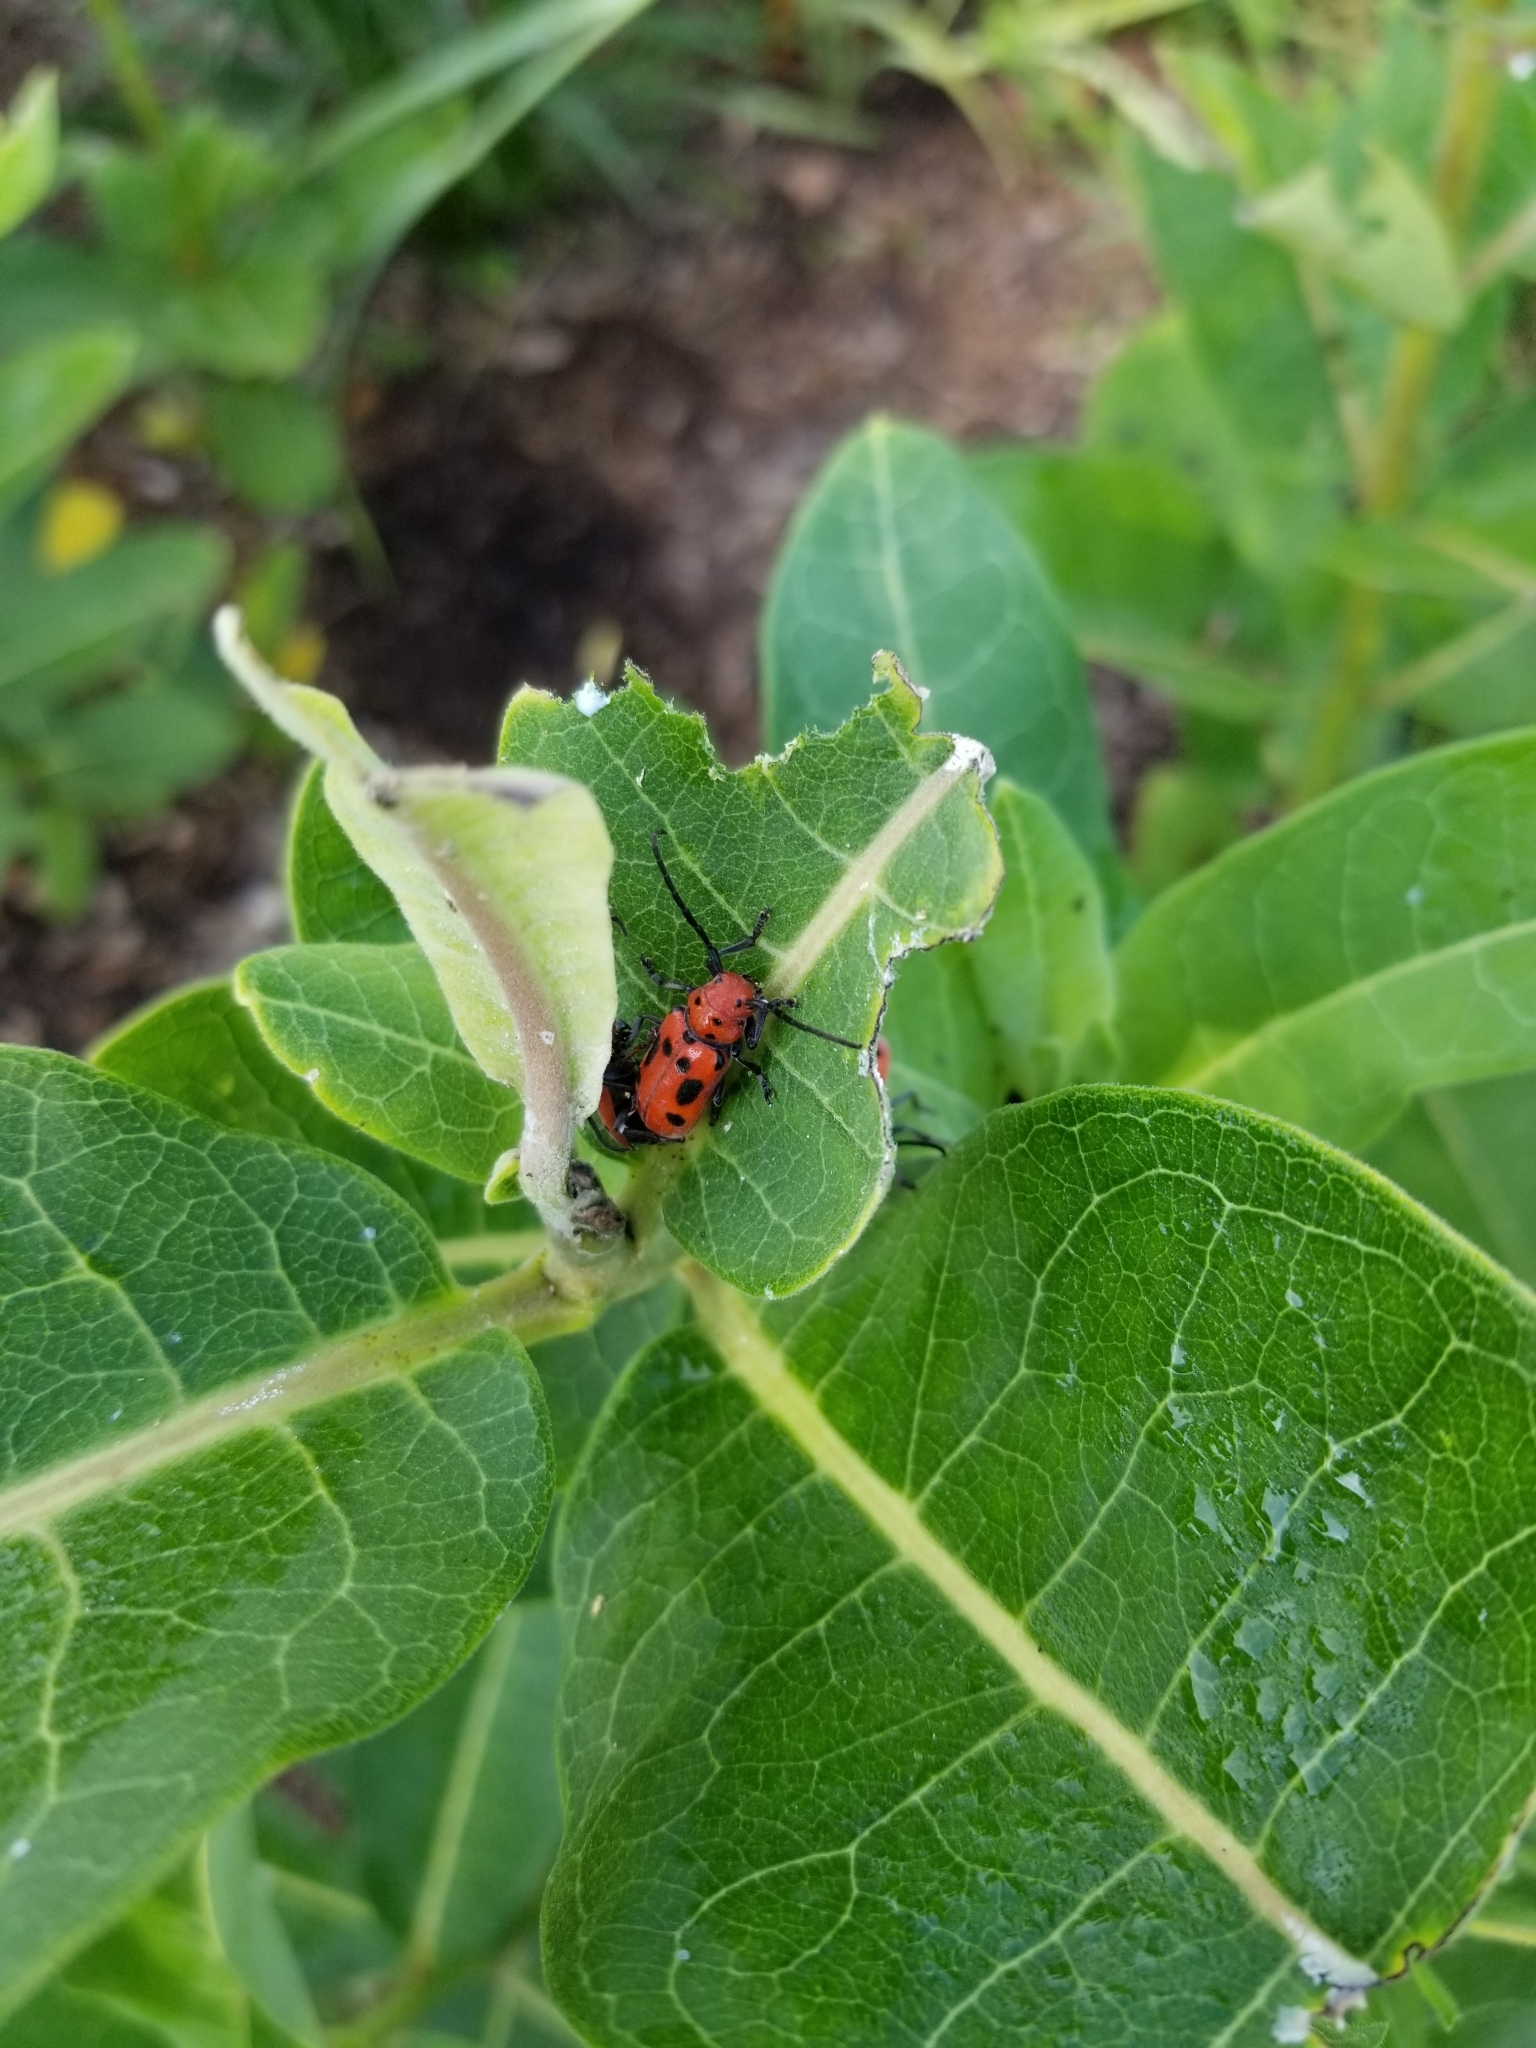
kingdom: Animalia
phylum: Arthropoda
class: Insecta
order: Coleoptera
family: Cerambycidae
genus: Tetraopes
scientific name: Tetraopes tetrophthalmus
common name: Red milkweed beetle
